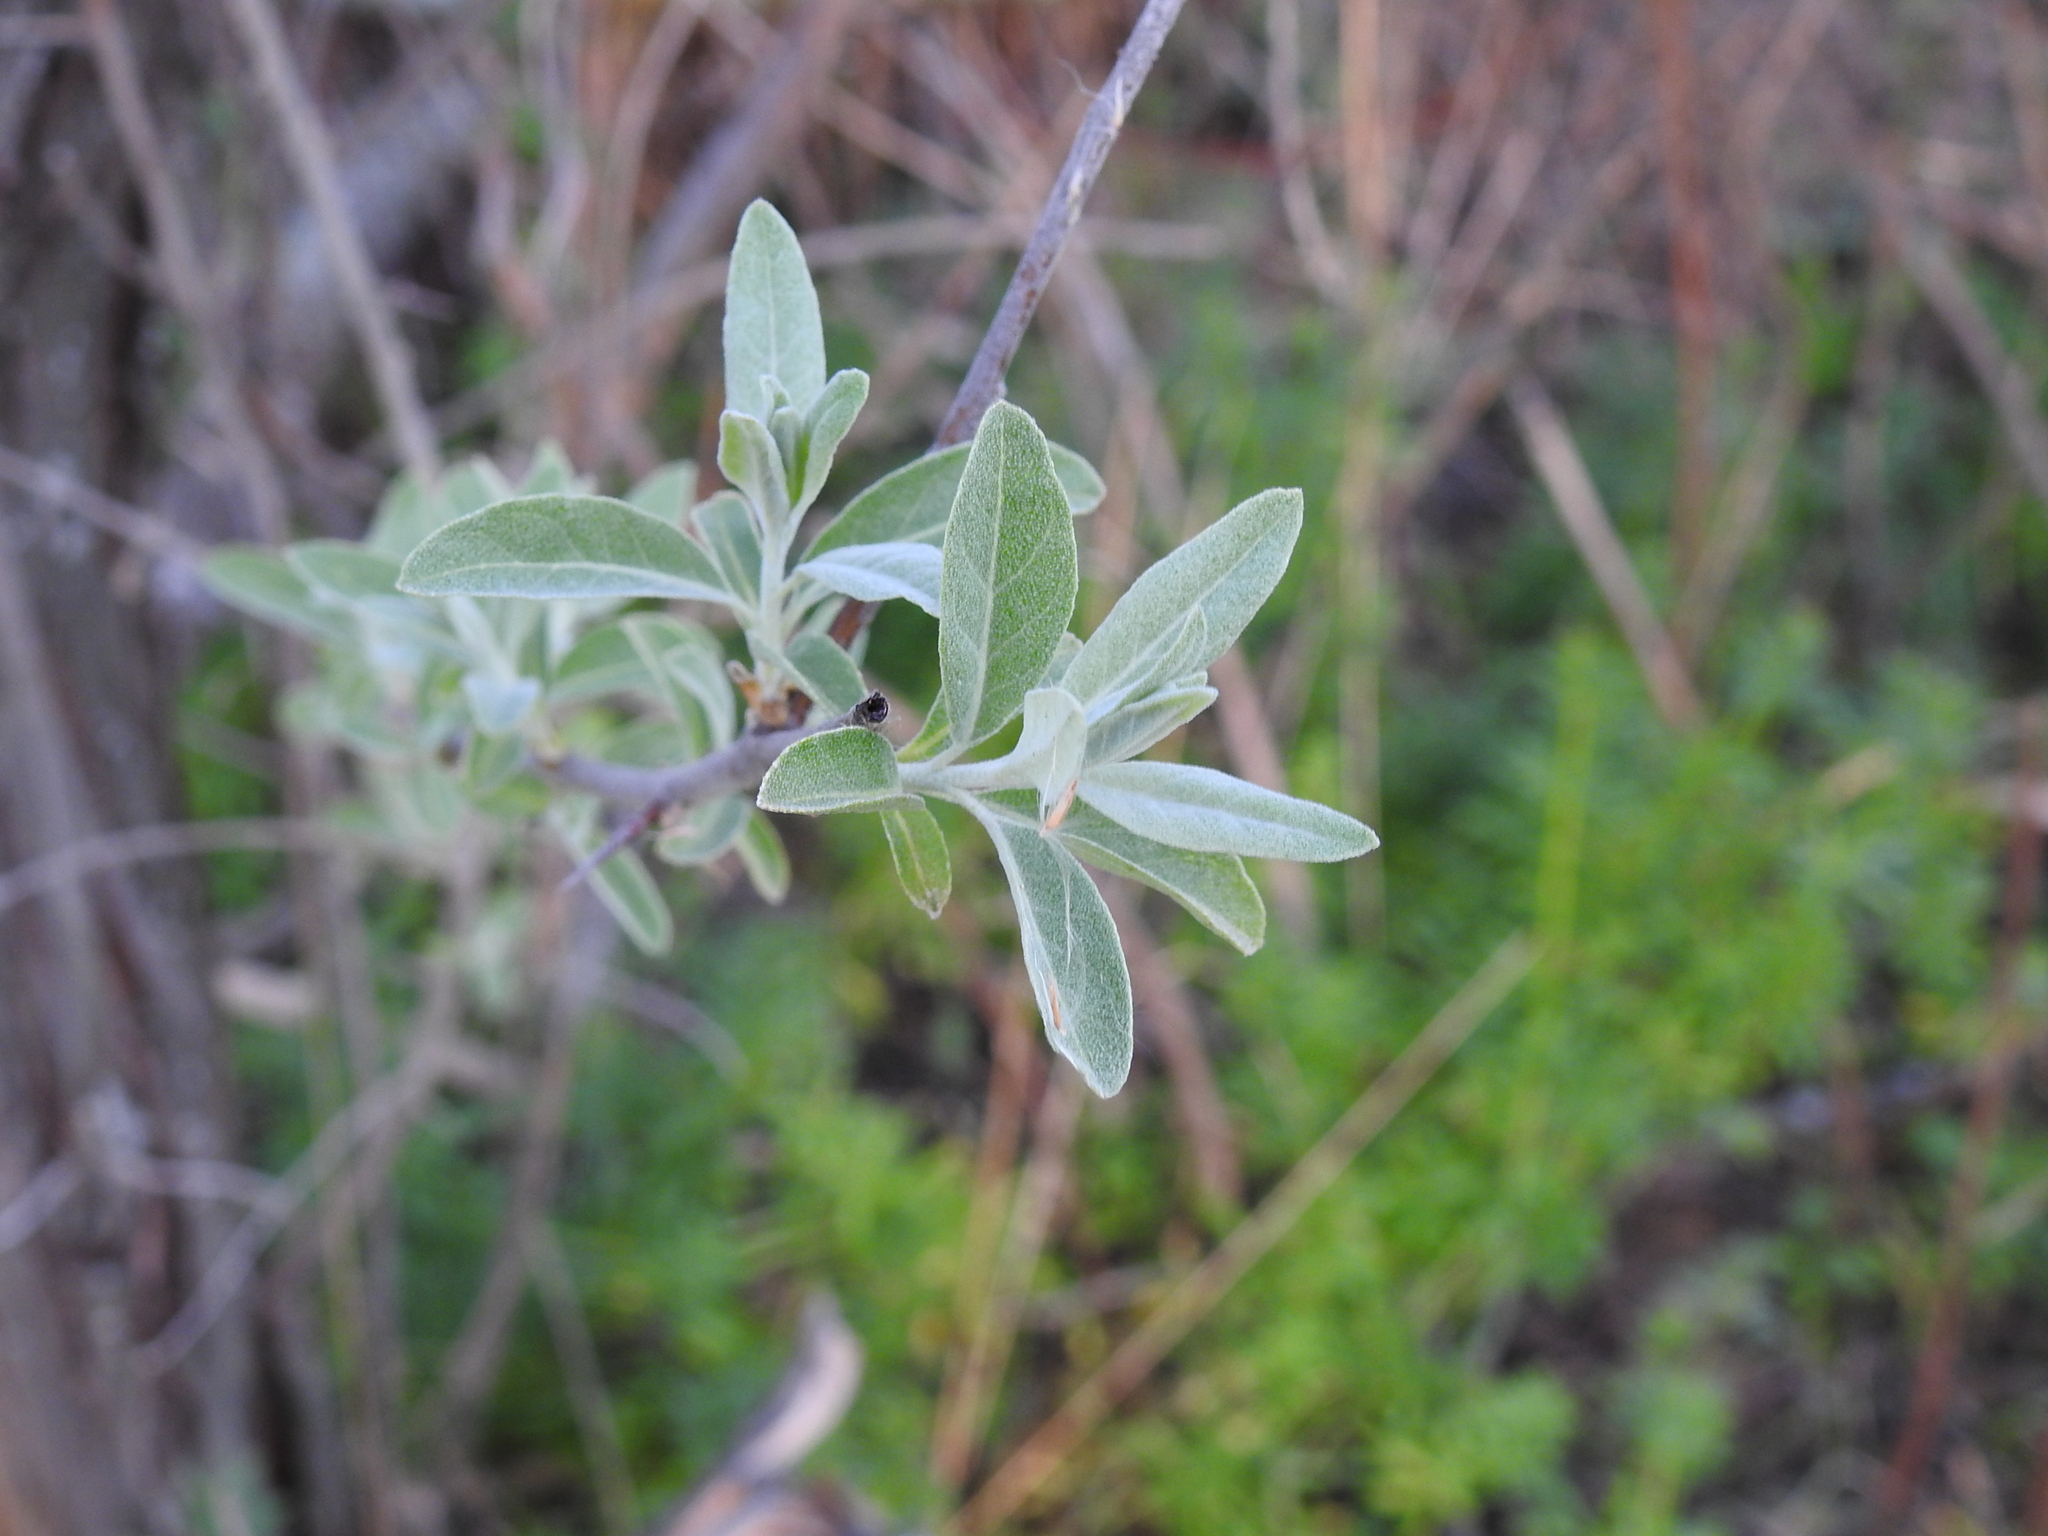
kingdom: Plantae
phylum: Tracheophyta
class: Magnoliopsida
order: Rosales
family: Elaeagnaceae
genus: Elaeagnus
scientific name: Elaeagnus angustifolia
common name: Russian olive
